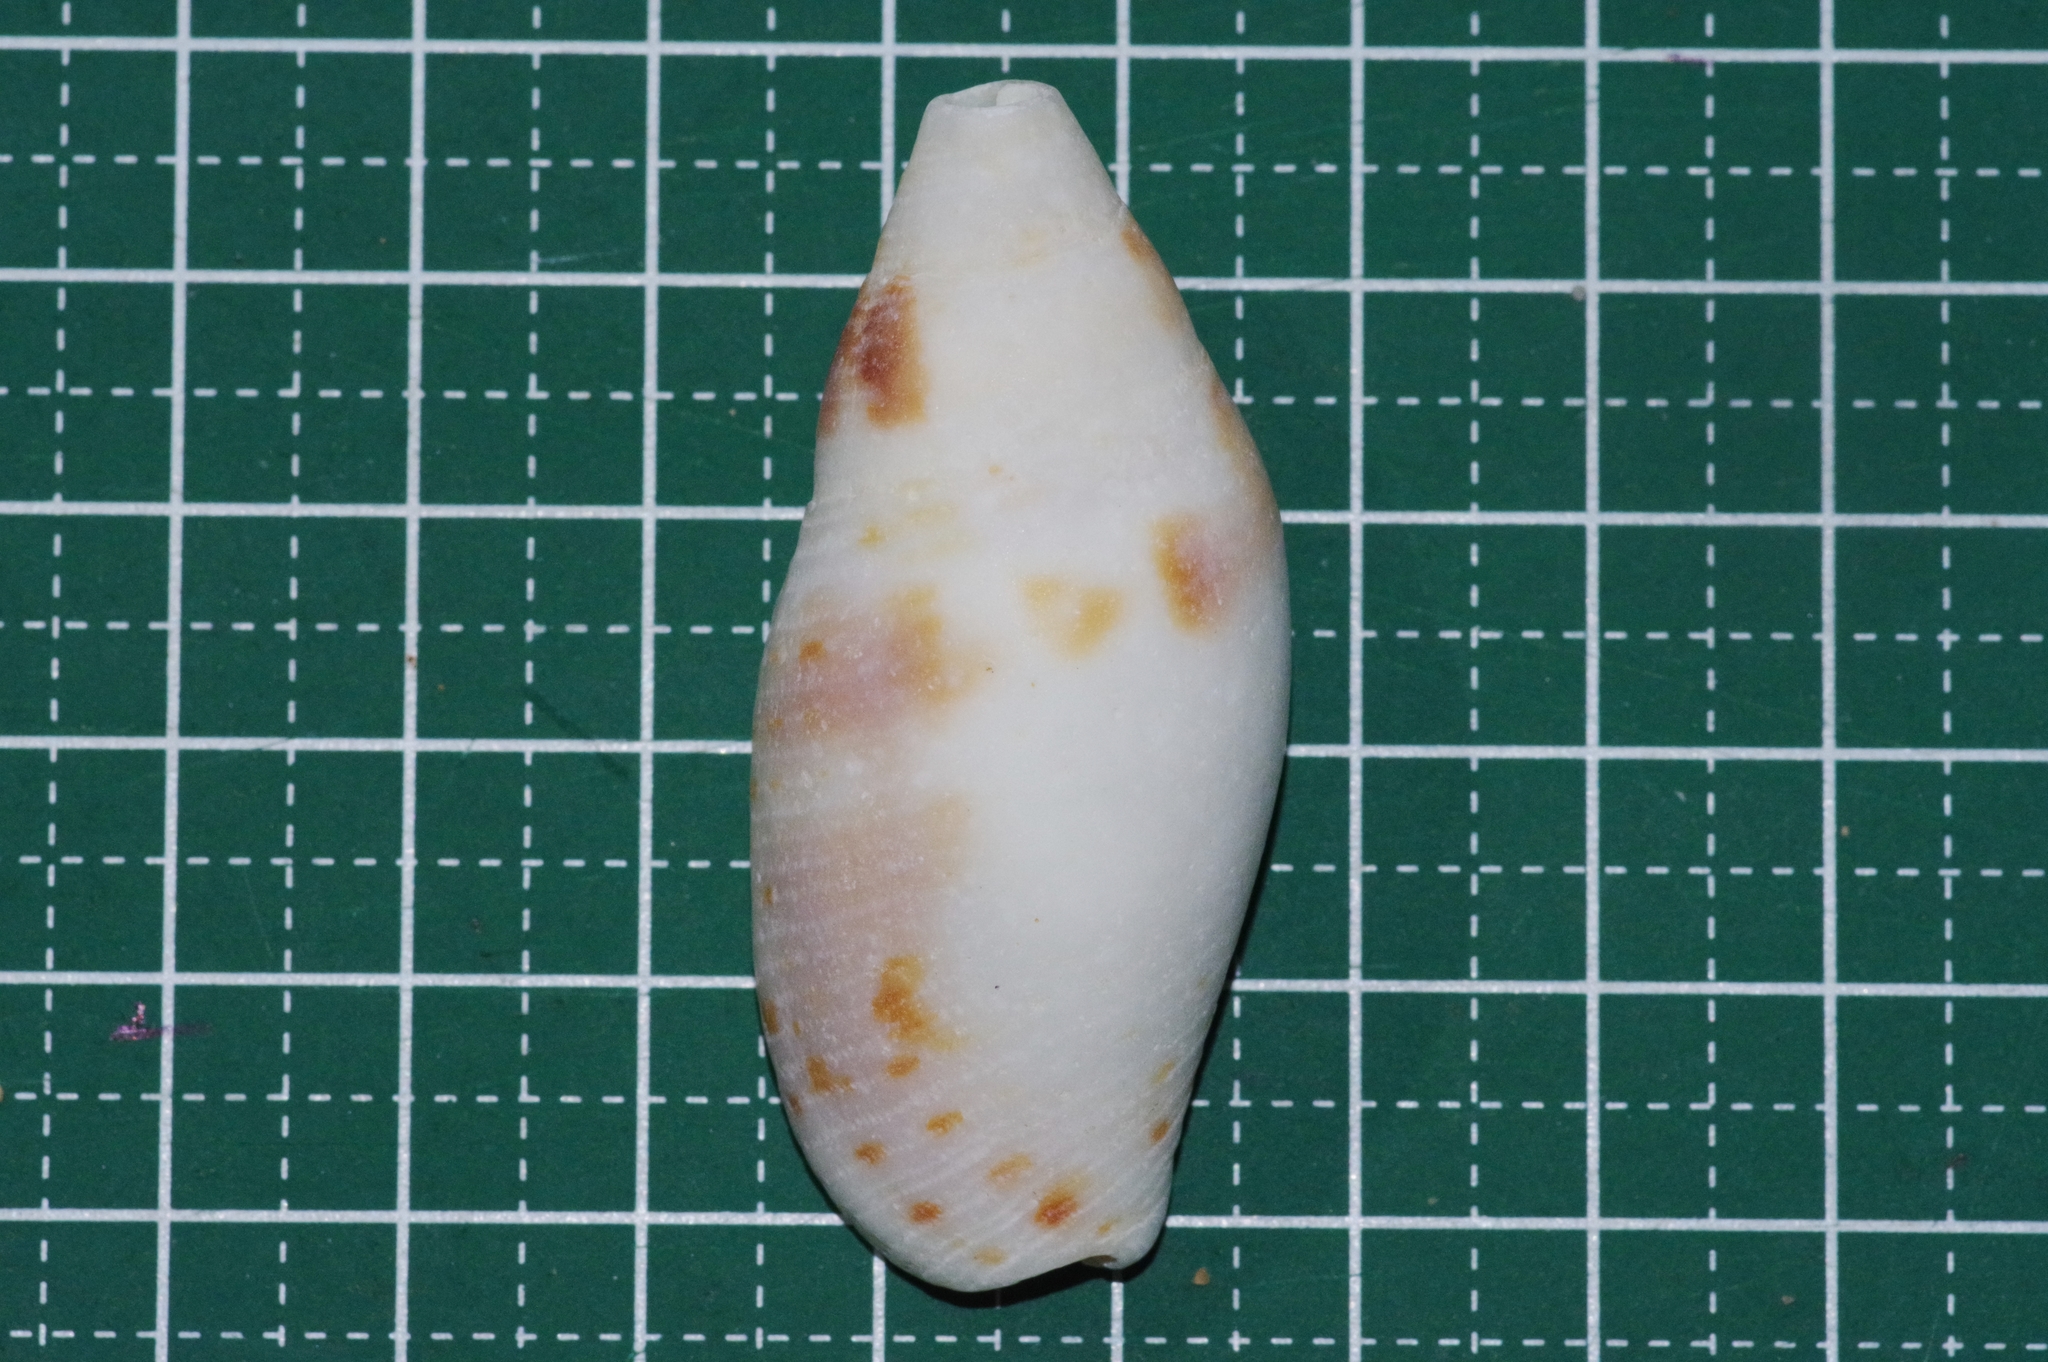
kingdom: Animalia
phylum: Mollusca
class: Gastropoda
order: Neogastropoda
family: Mitridae
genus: Nebularia
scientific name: Nebularia eremitarum
